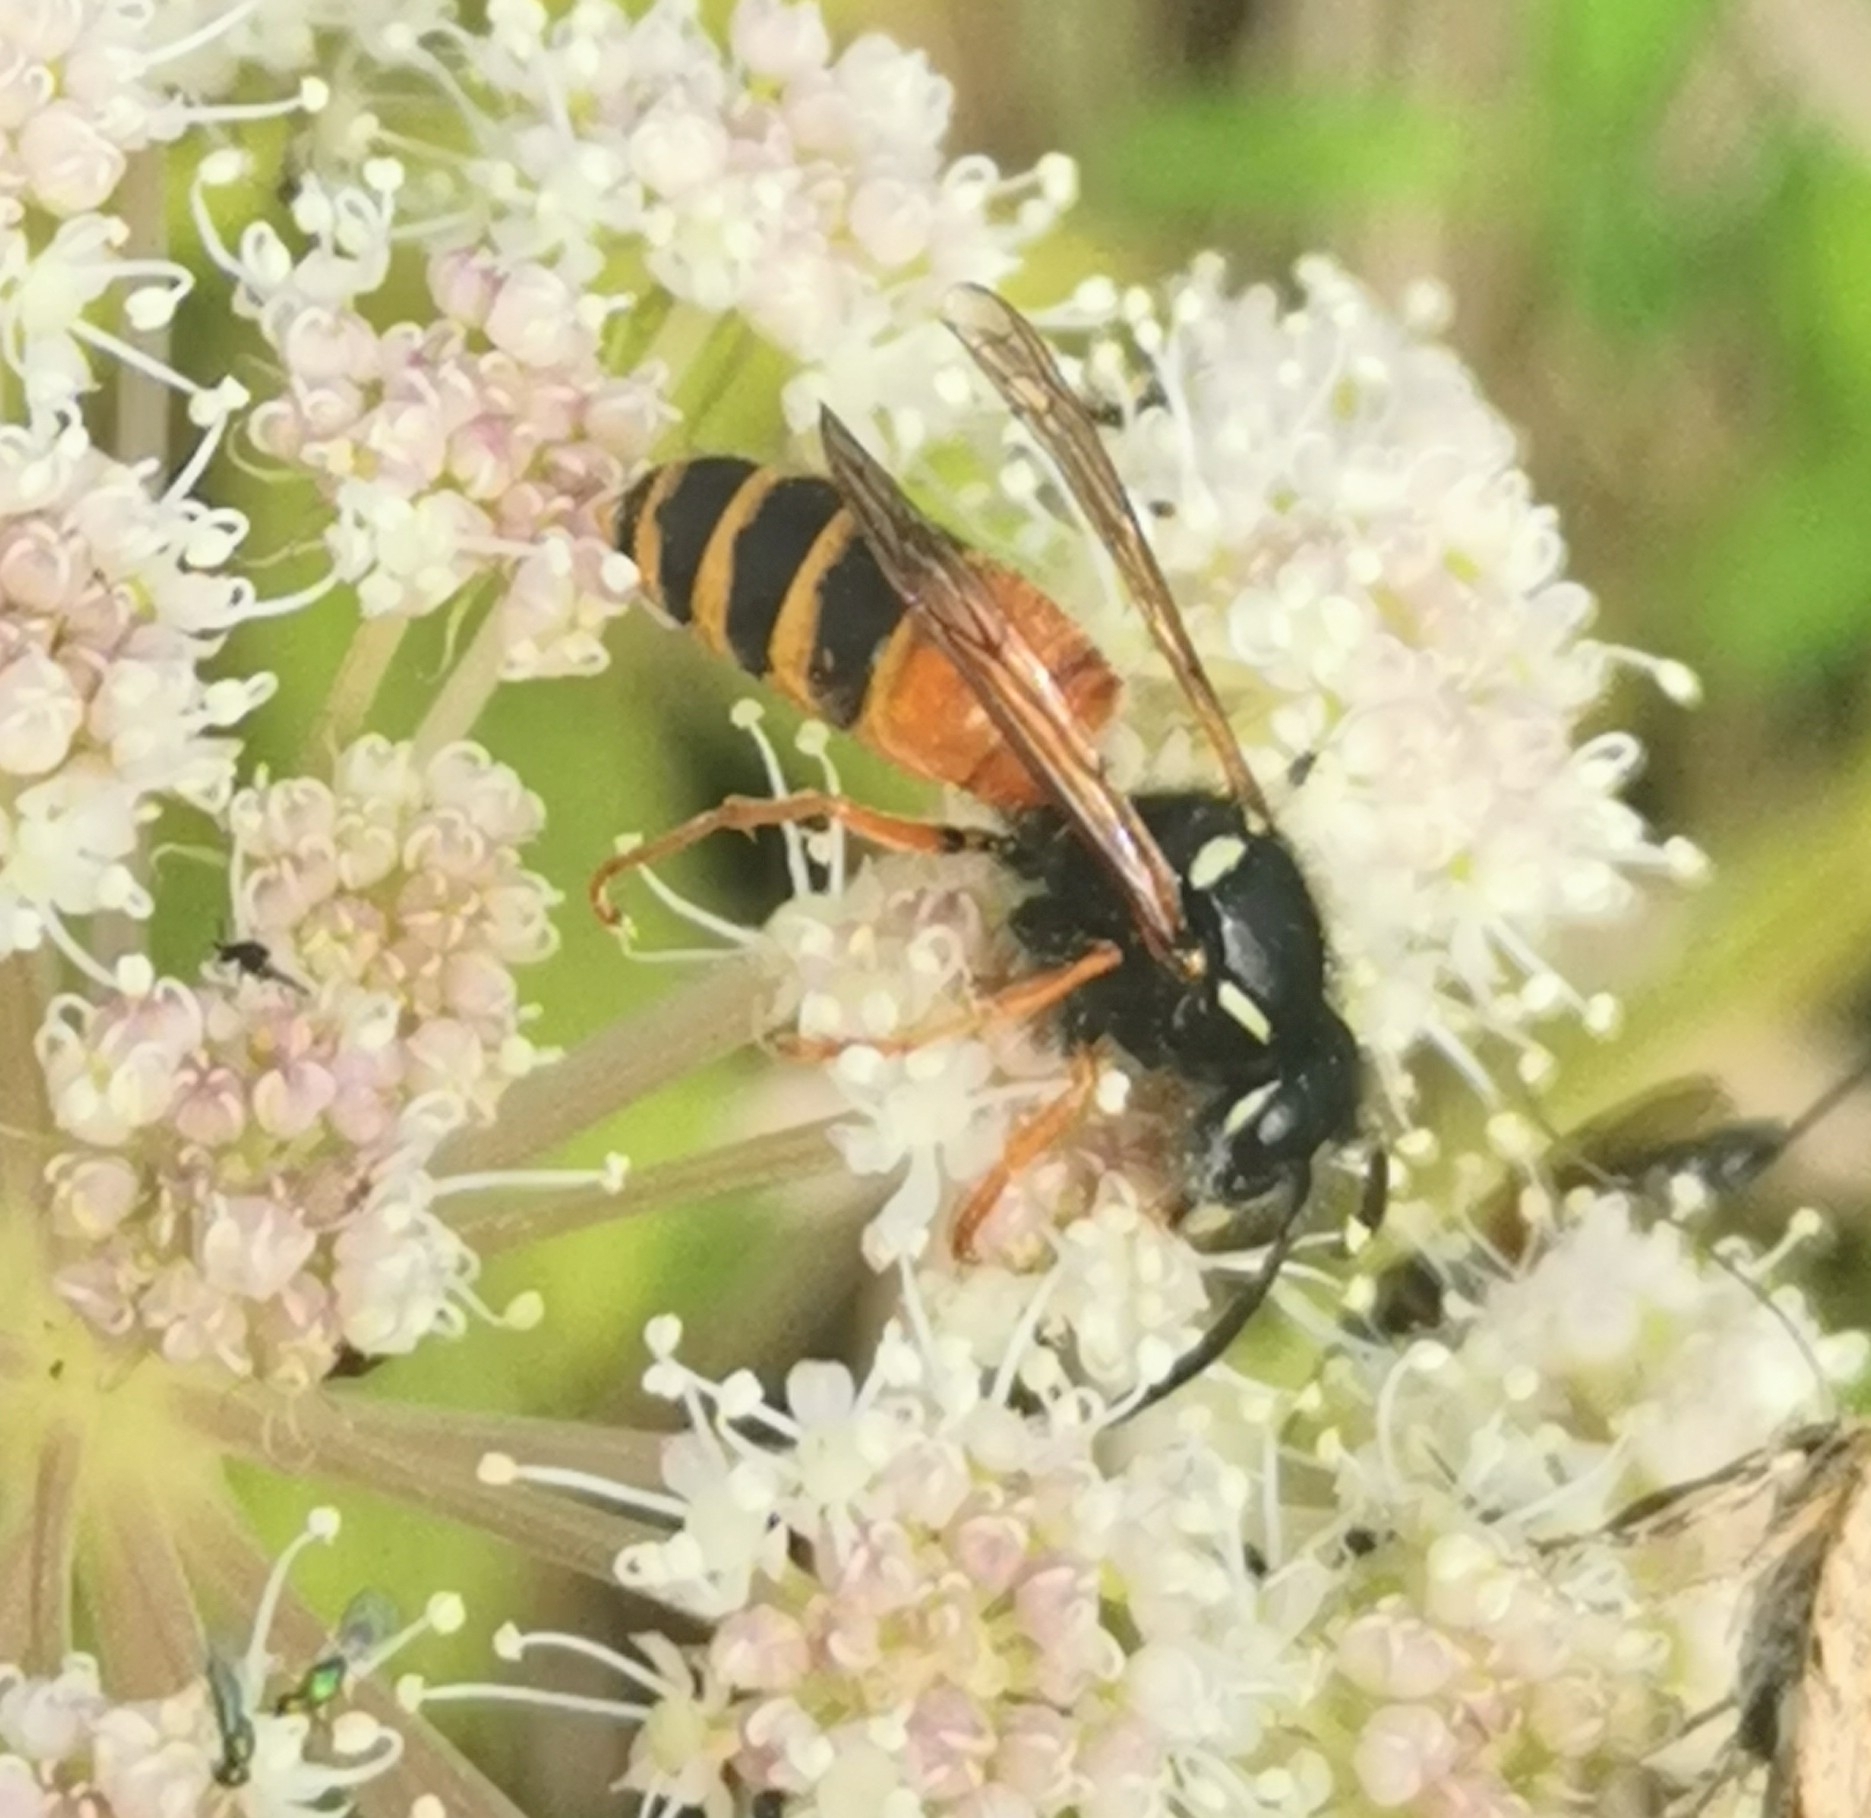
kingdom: Animalia
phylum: Arthropoda
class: Insecta
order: Hymenoptera
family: Vespidae
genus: Vespula
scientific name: Vespula rufa
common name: Red wasp
